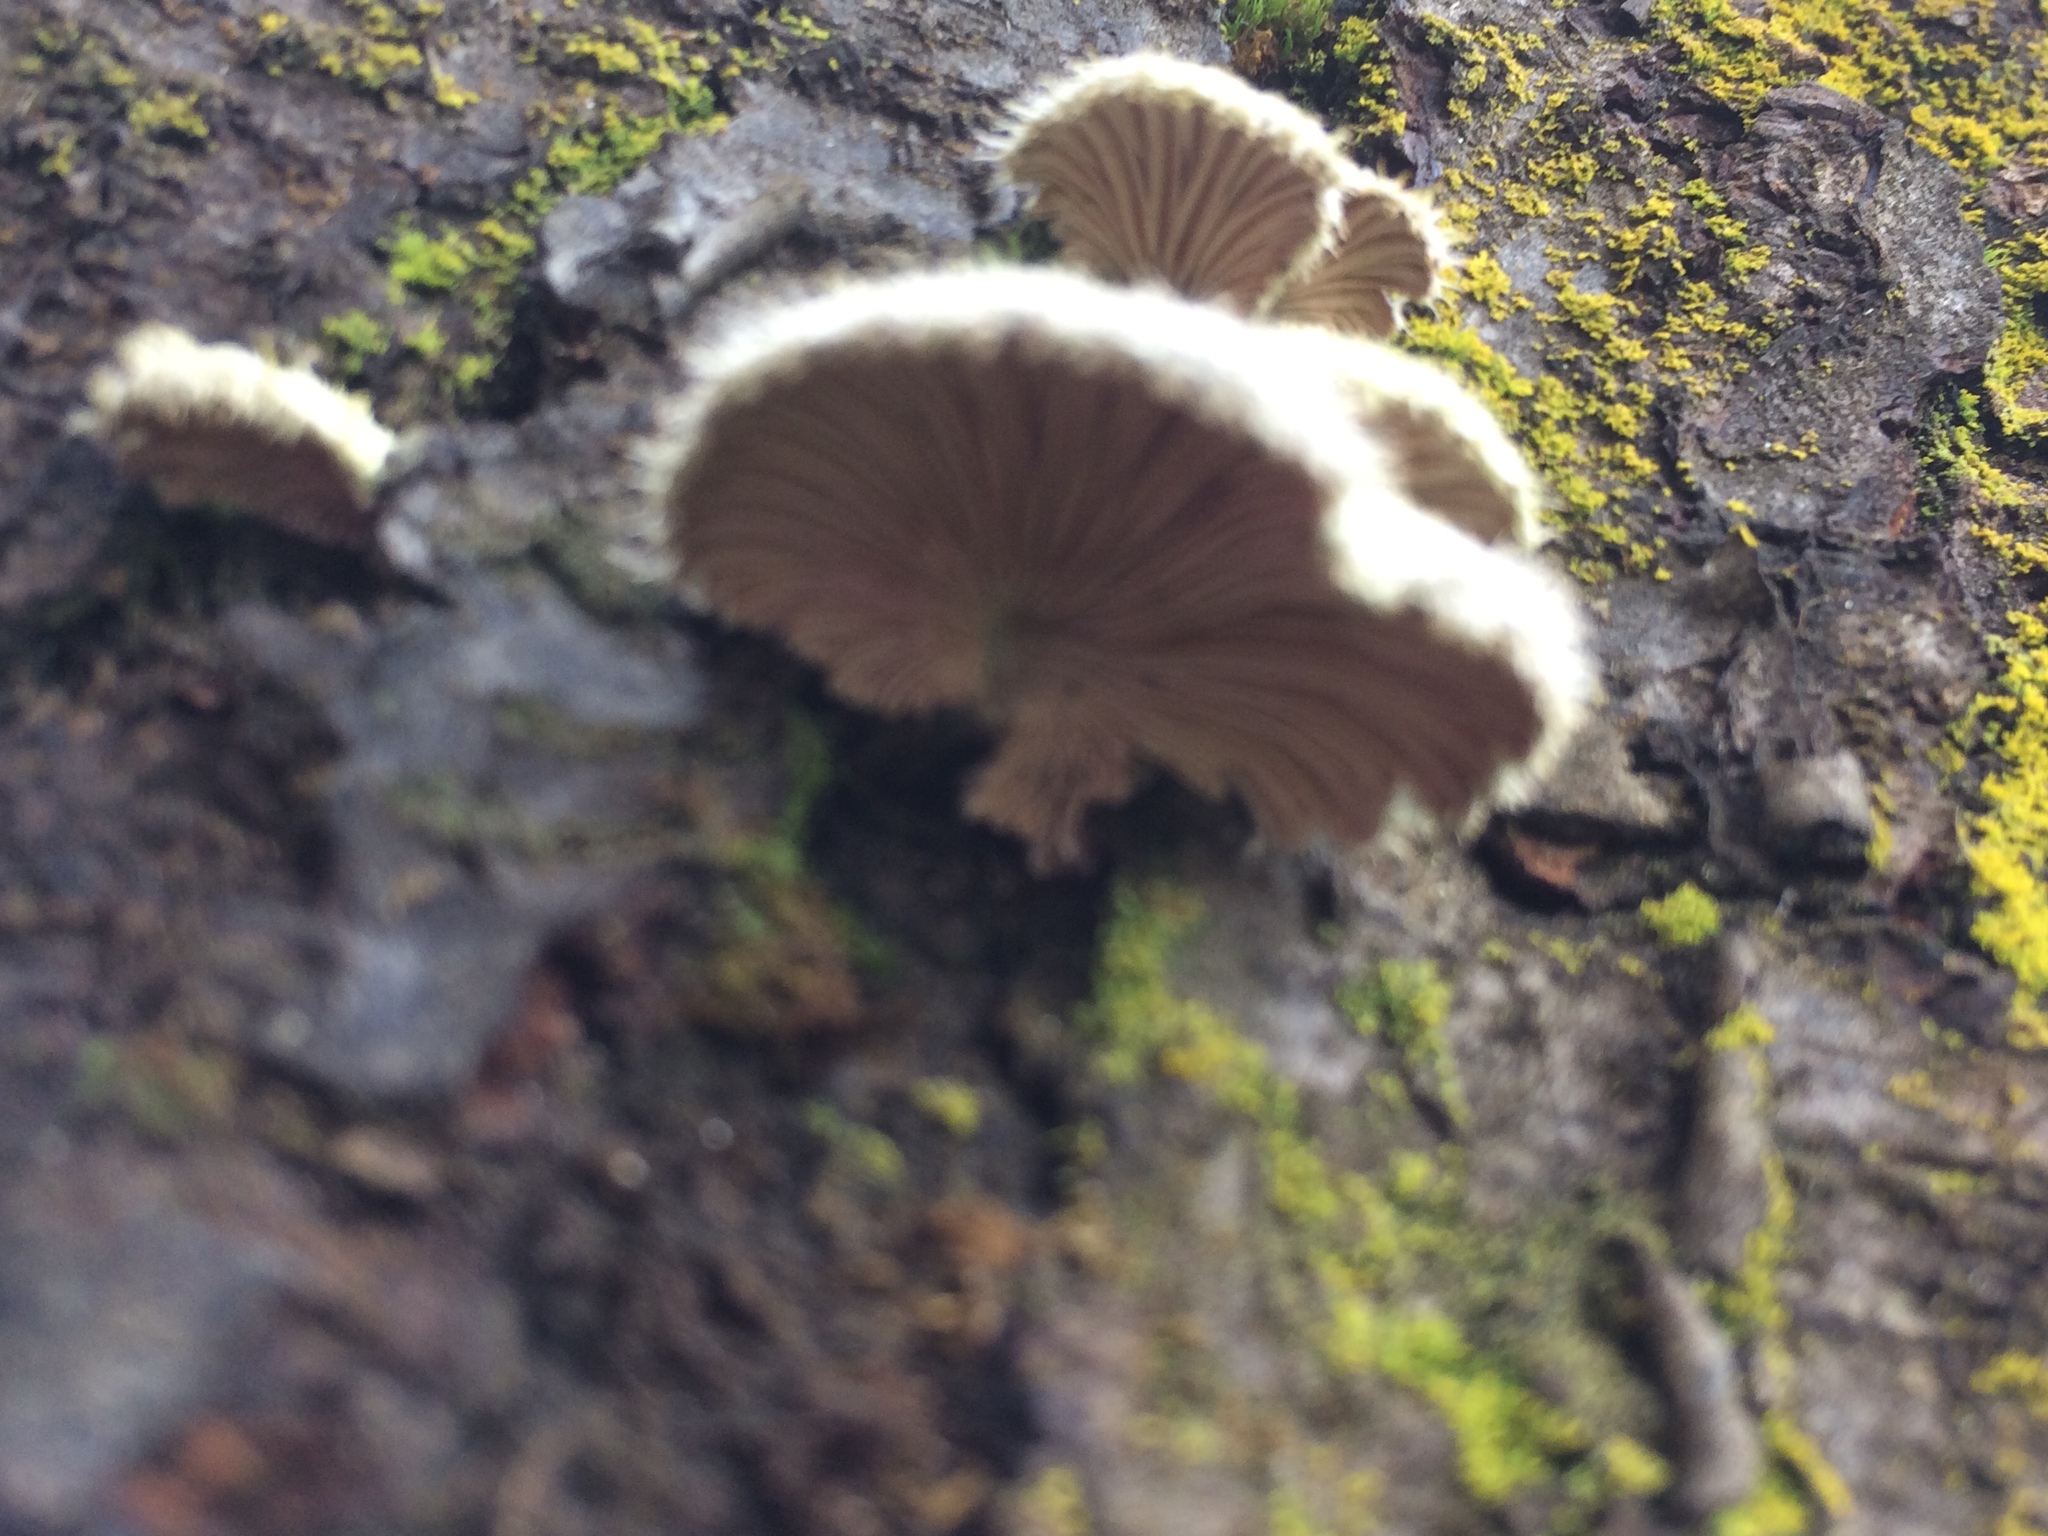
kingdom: Fungi
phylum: Basidiomycota
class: Agaricomycetes
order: Agaricales
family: Schizophyllaceae
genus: Schizophyllum
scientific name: Schizophyllum commune
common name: Common porecrust
